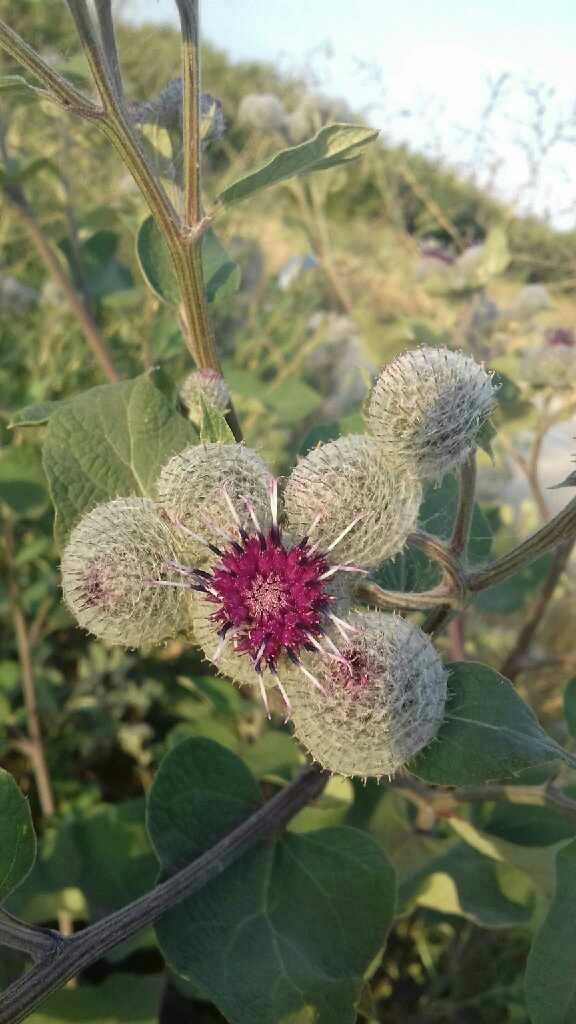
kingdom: Plantae
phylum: Tracheophyta
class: Magnoliopsida
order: Asterales
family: Asteraceae
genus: Arctium
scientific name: Arctium tomentosum
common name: Woolly burdock
